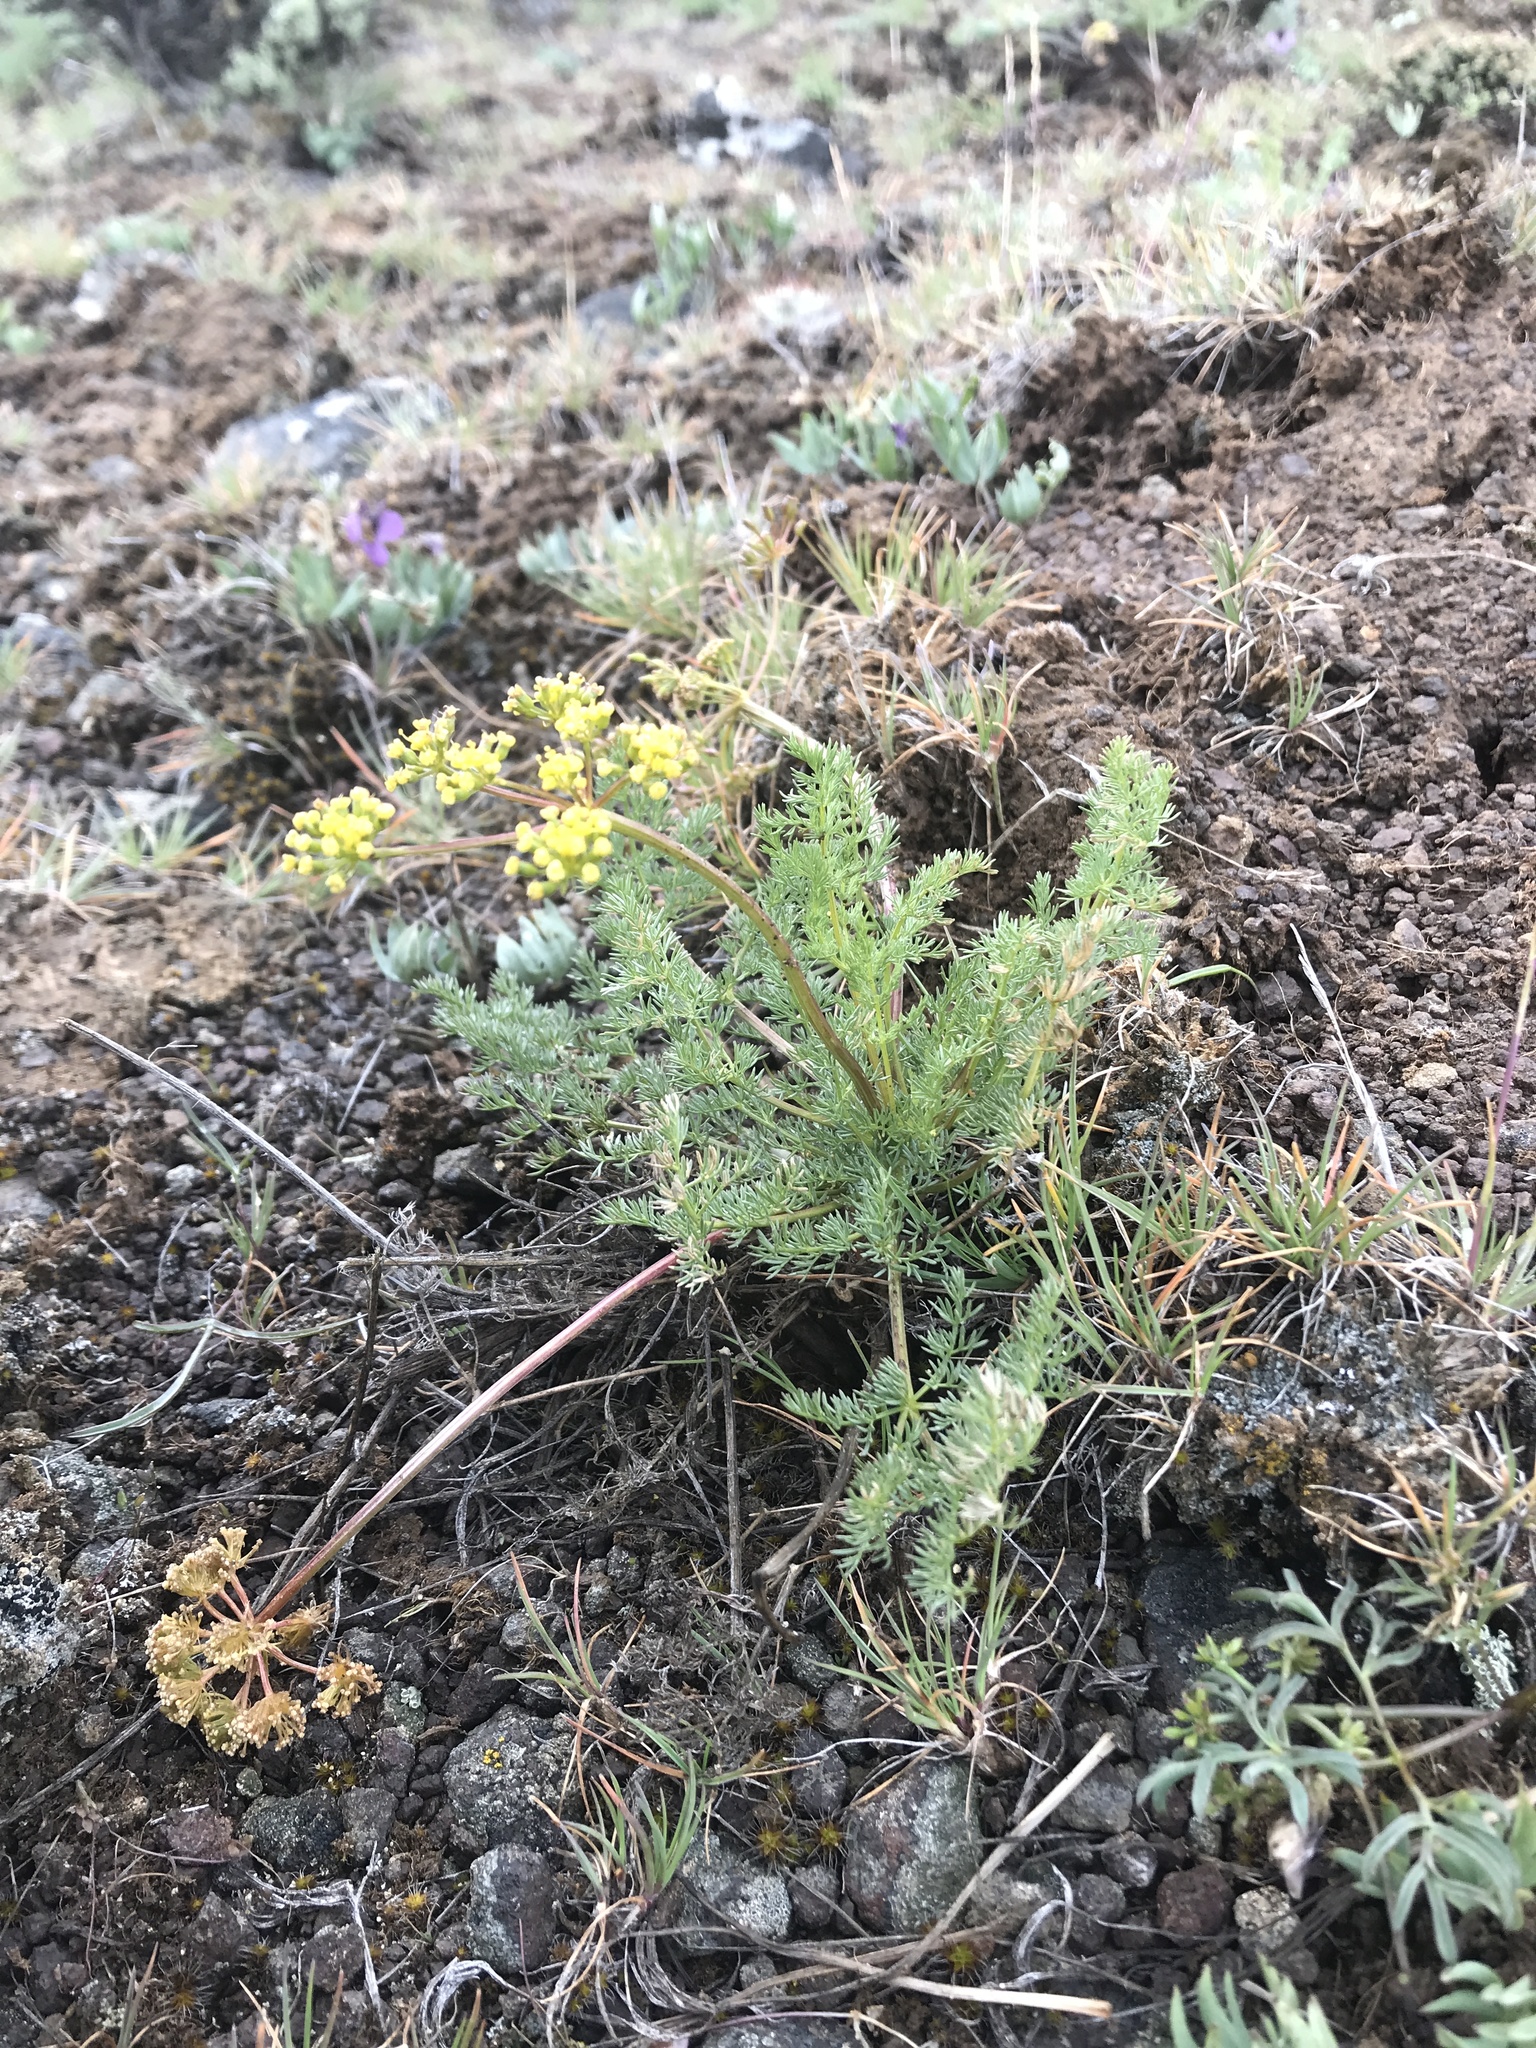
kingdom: Plantae
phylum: Tracheophyta
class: Magnoliopsida
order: Apiales
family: Apiaceae
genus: Lomatium
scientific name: Lomatium quintuplex
